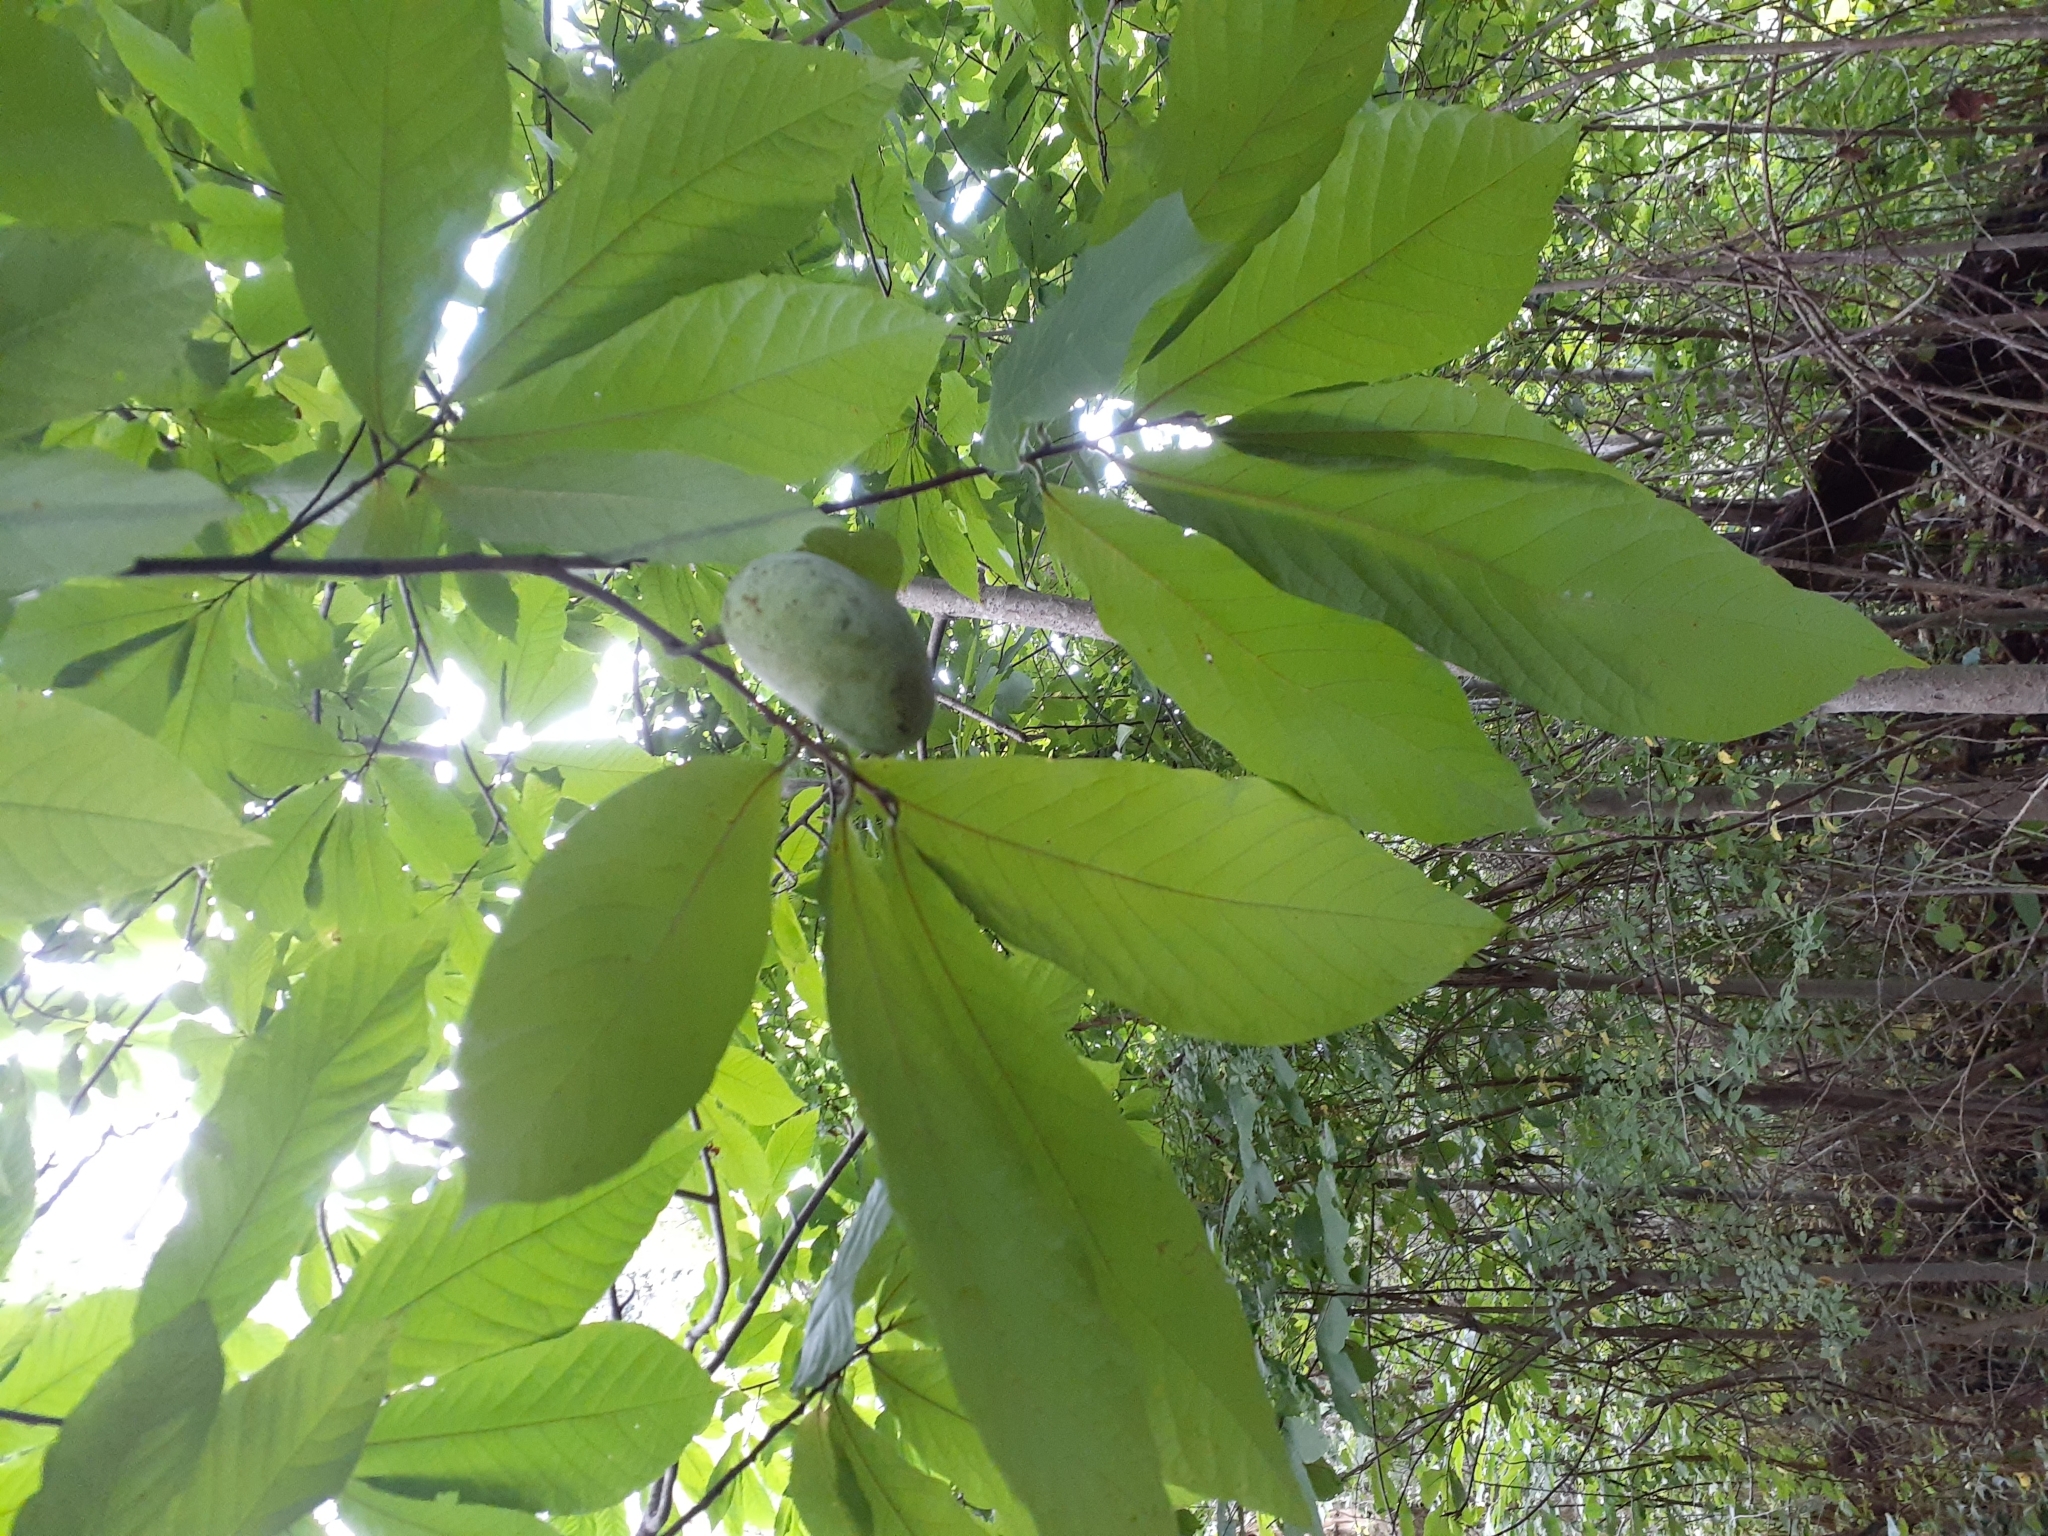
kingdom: Plantae
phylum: Tracheophyta
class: Magnoliopsida
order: Magnoliales
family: Annonaceae
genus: Asimina
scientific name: Asimina triloba
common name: Dog-banana
